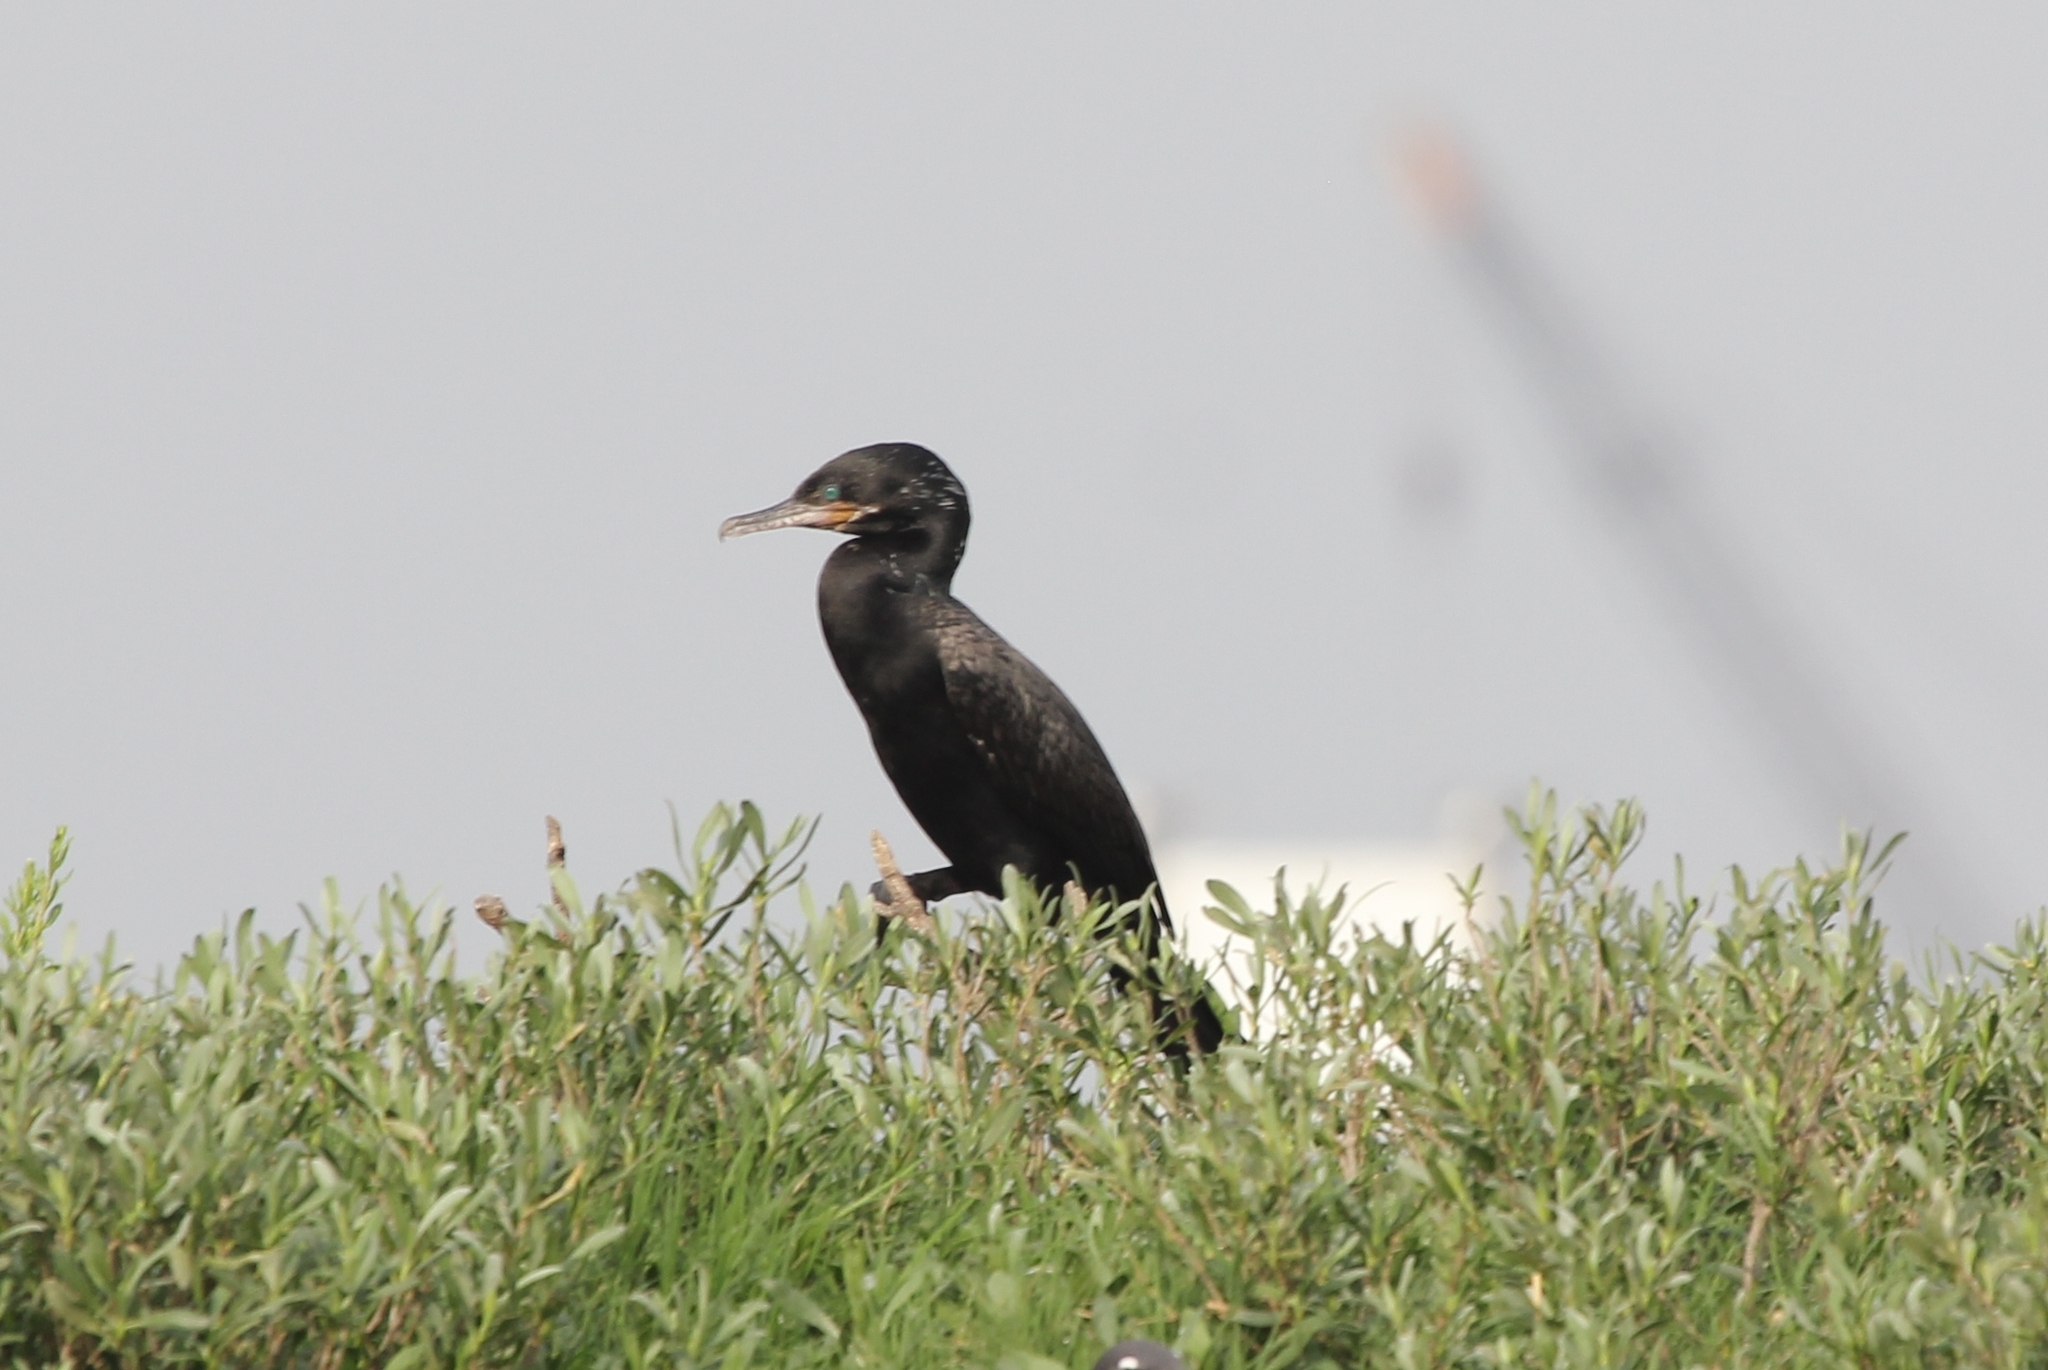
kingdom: Animalia
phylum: Chordata
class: Aves
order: Suliformes
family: Phalacrocoracidae
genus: Phalacrocorax
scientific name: Phalacrocorax brasilianus
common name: Neotropic cormorant
